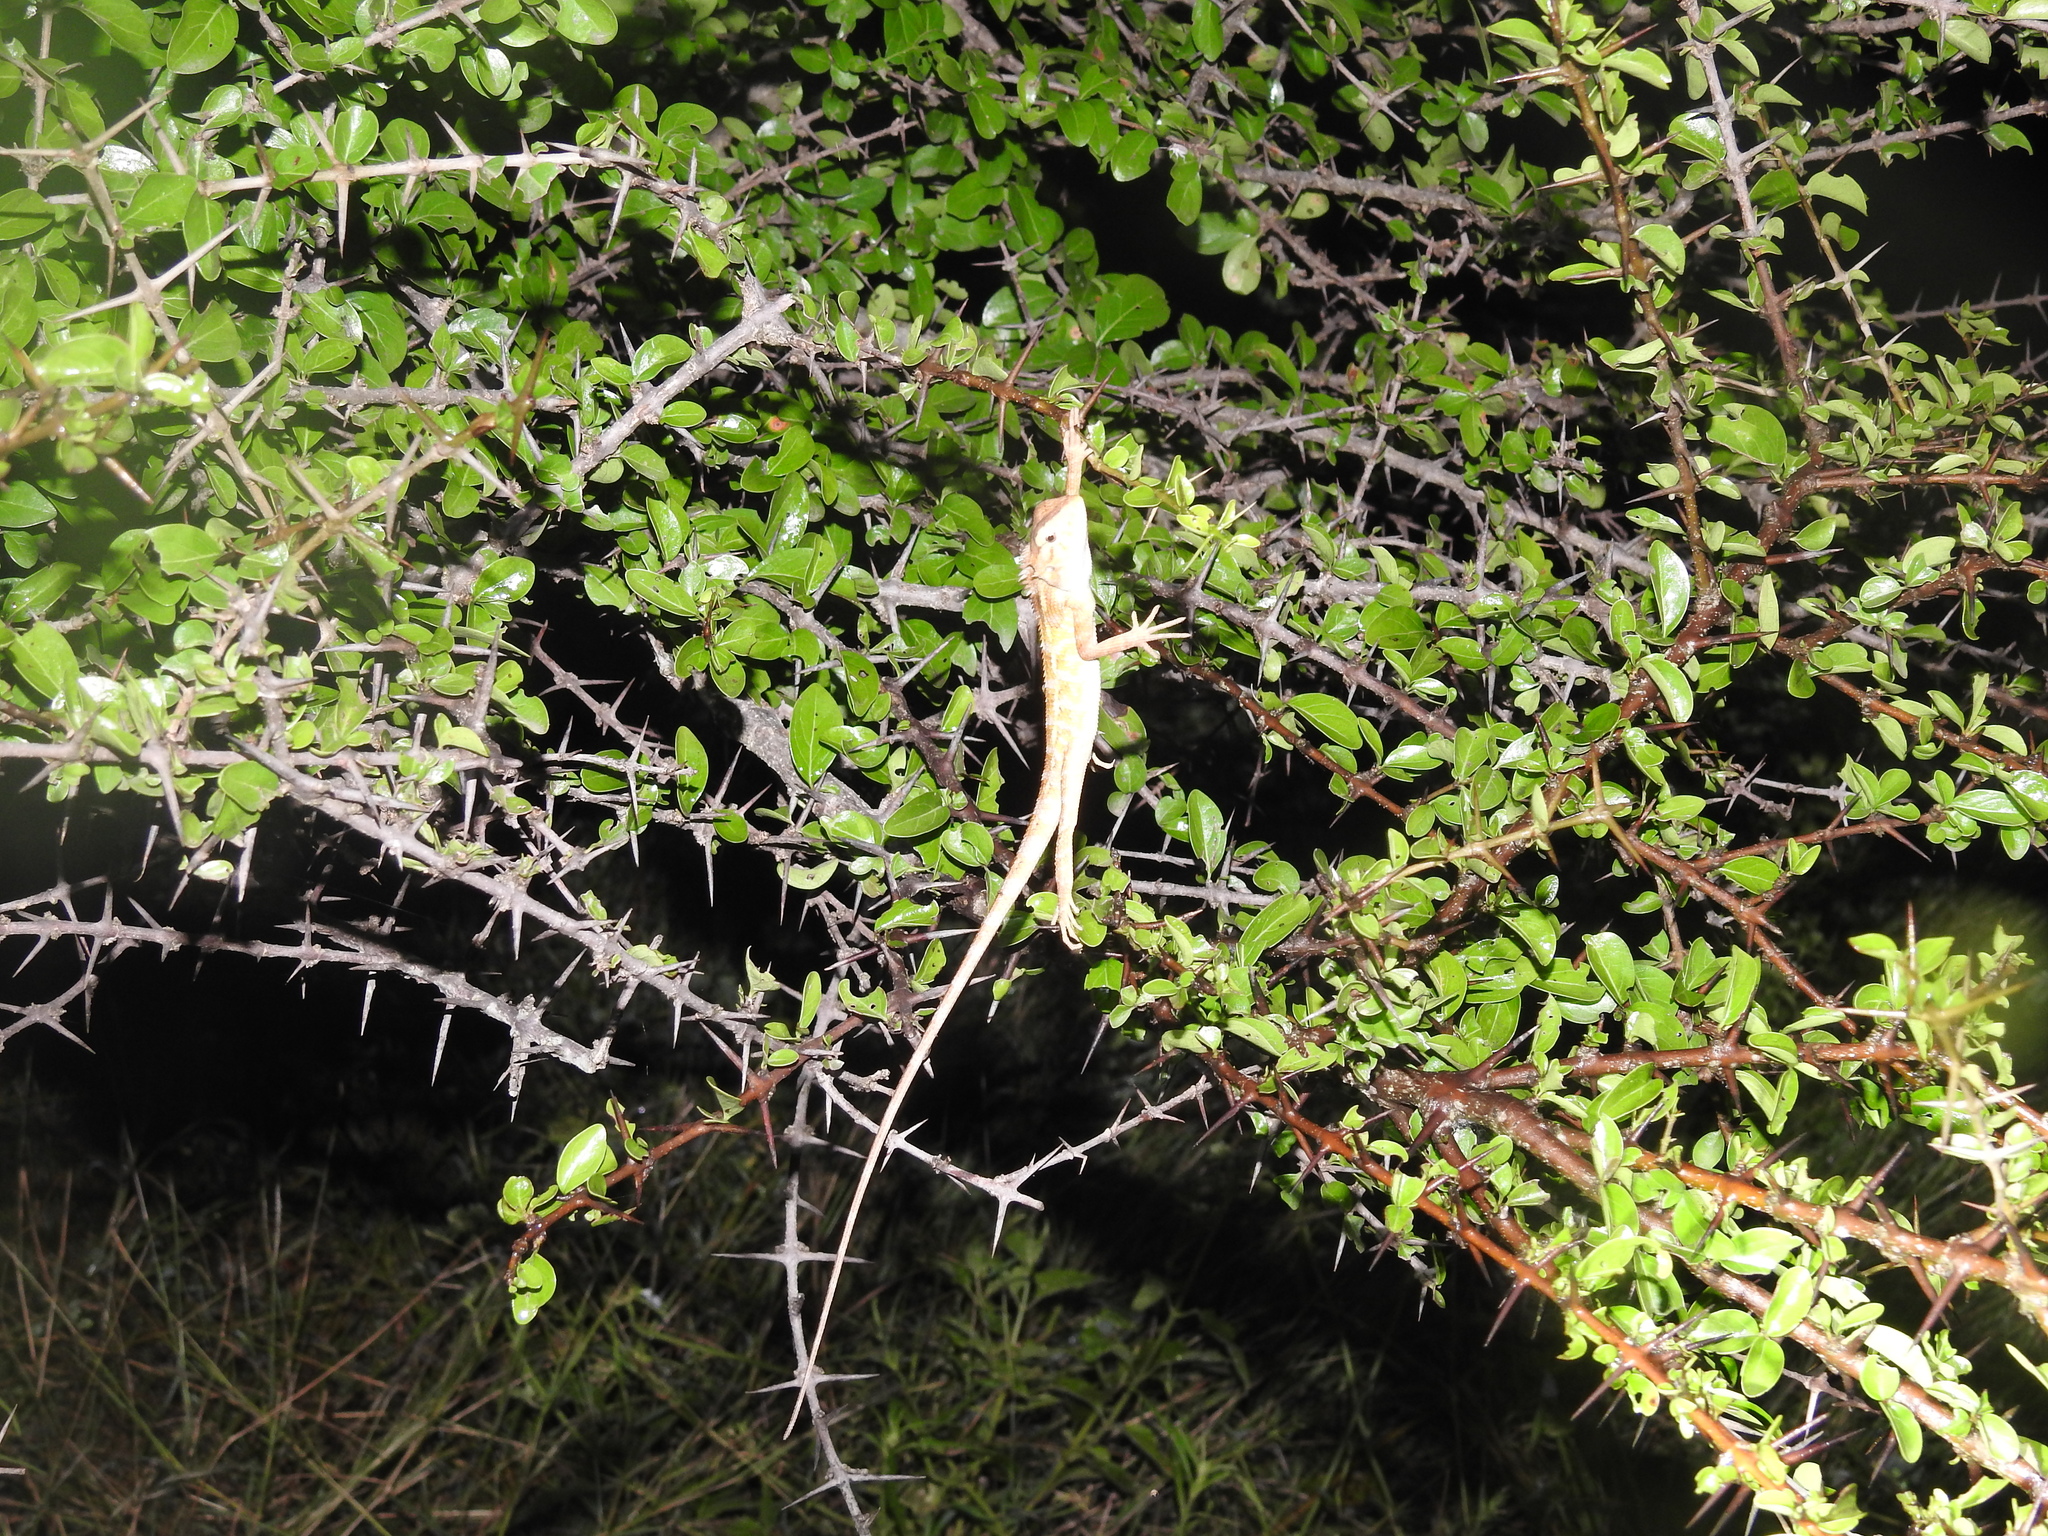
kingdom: Animalia
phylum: Chordata
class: Squamata
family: Agamidae
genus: Calotes
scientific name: Calotes versicolor
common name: Oriental garden lizard
